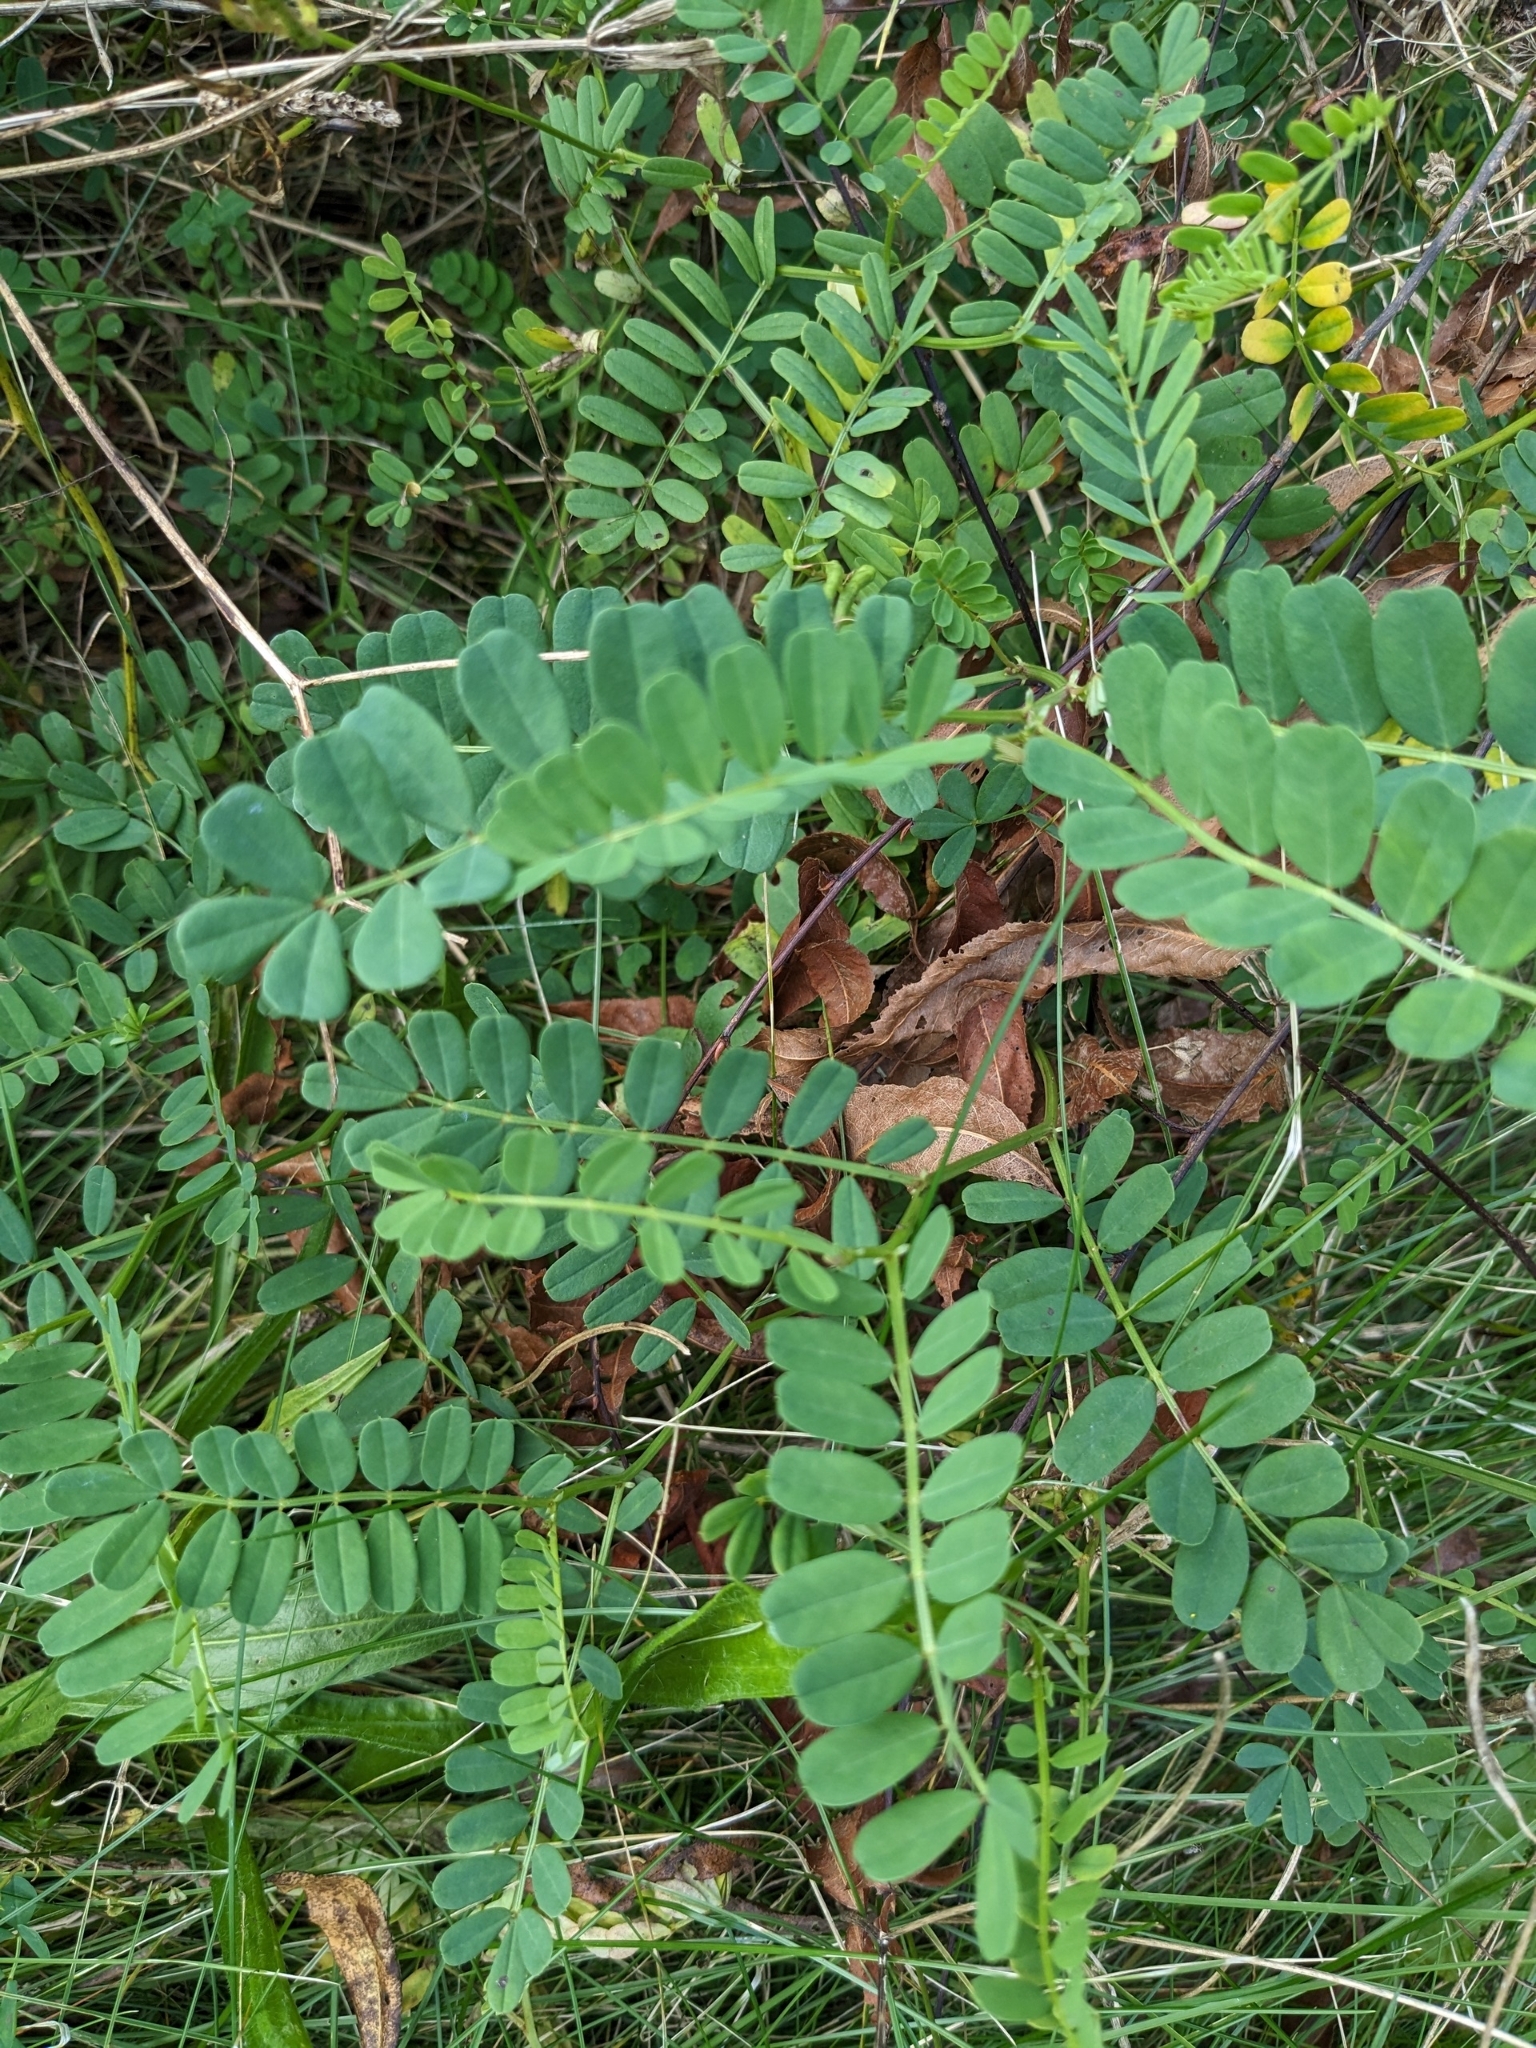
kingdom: Plantae
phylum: Tracheophyta
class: Magnoliopsida
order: Fabales
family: Fabaceae
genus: Coronilla
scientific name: Coronilla varia
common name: Crownvetch
